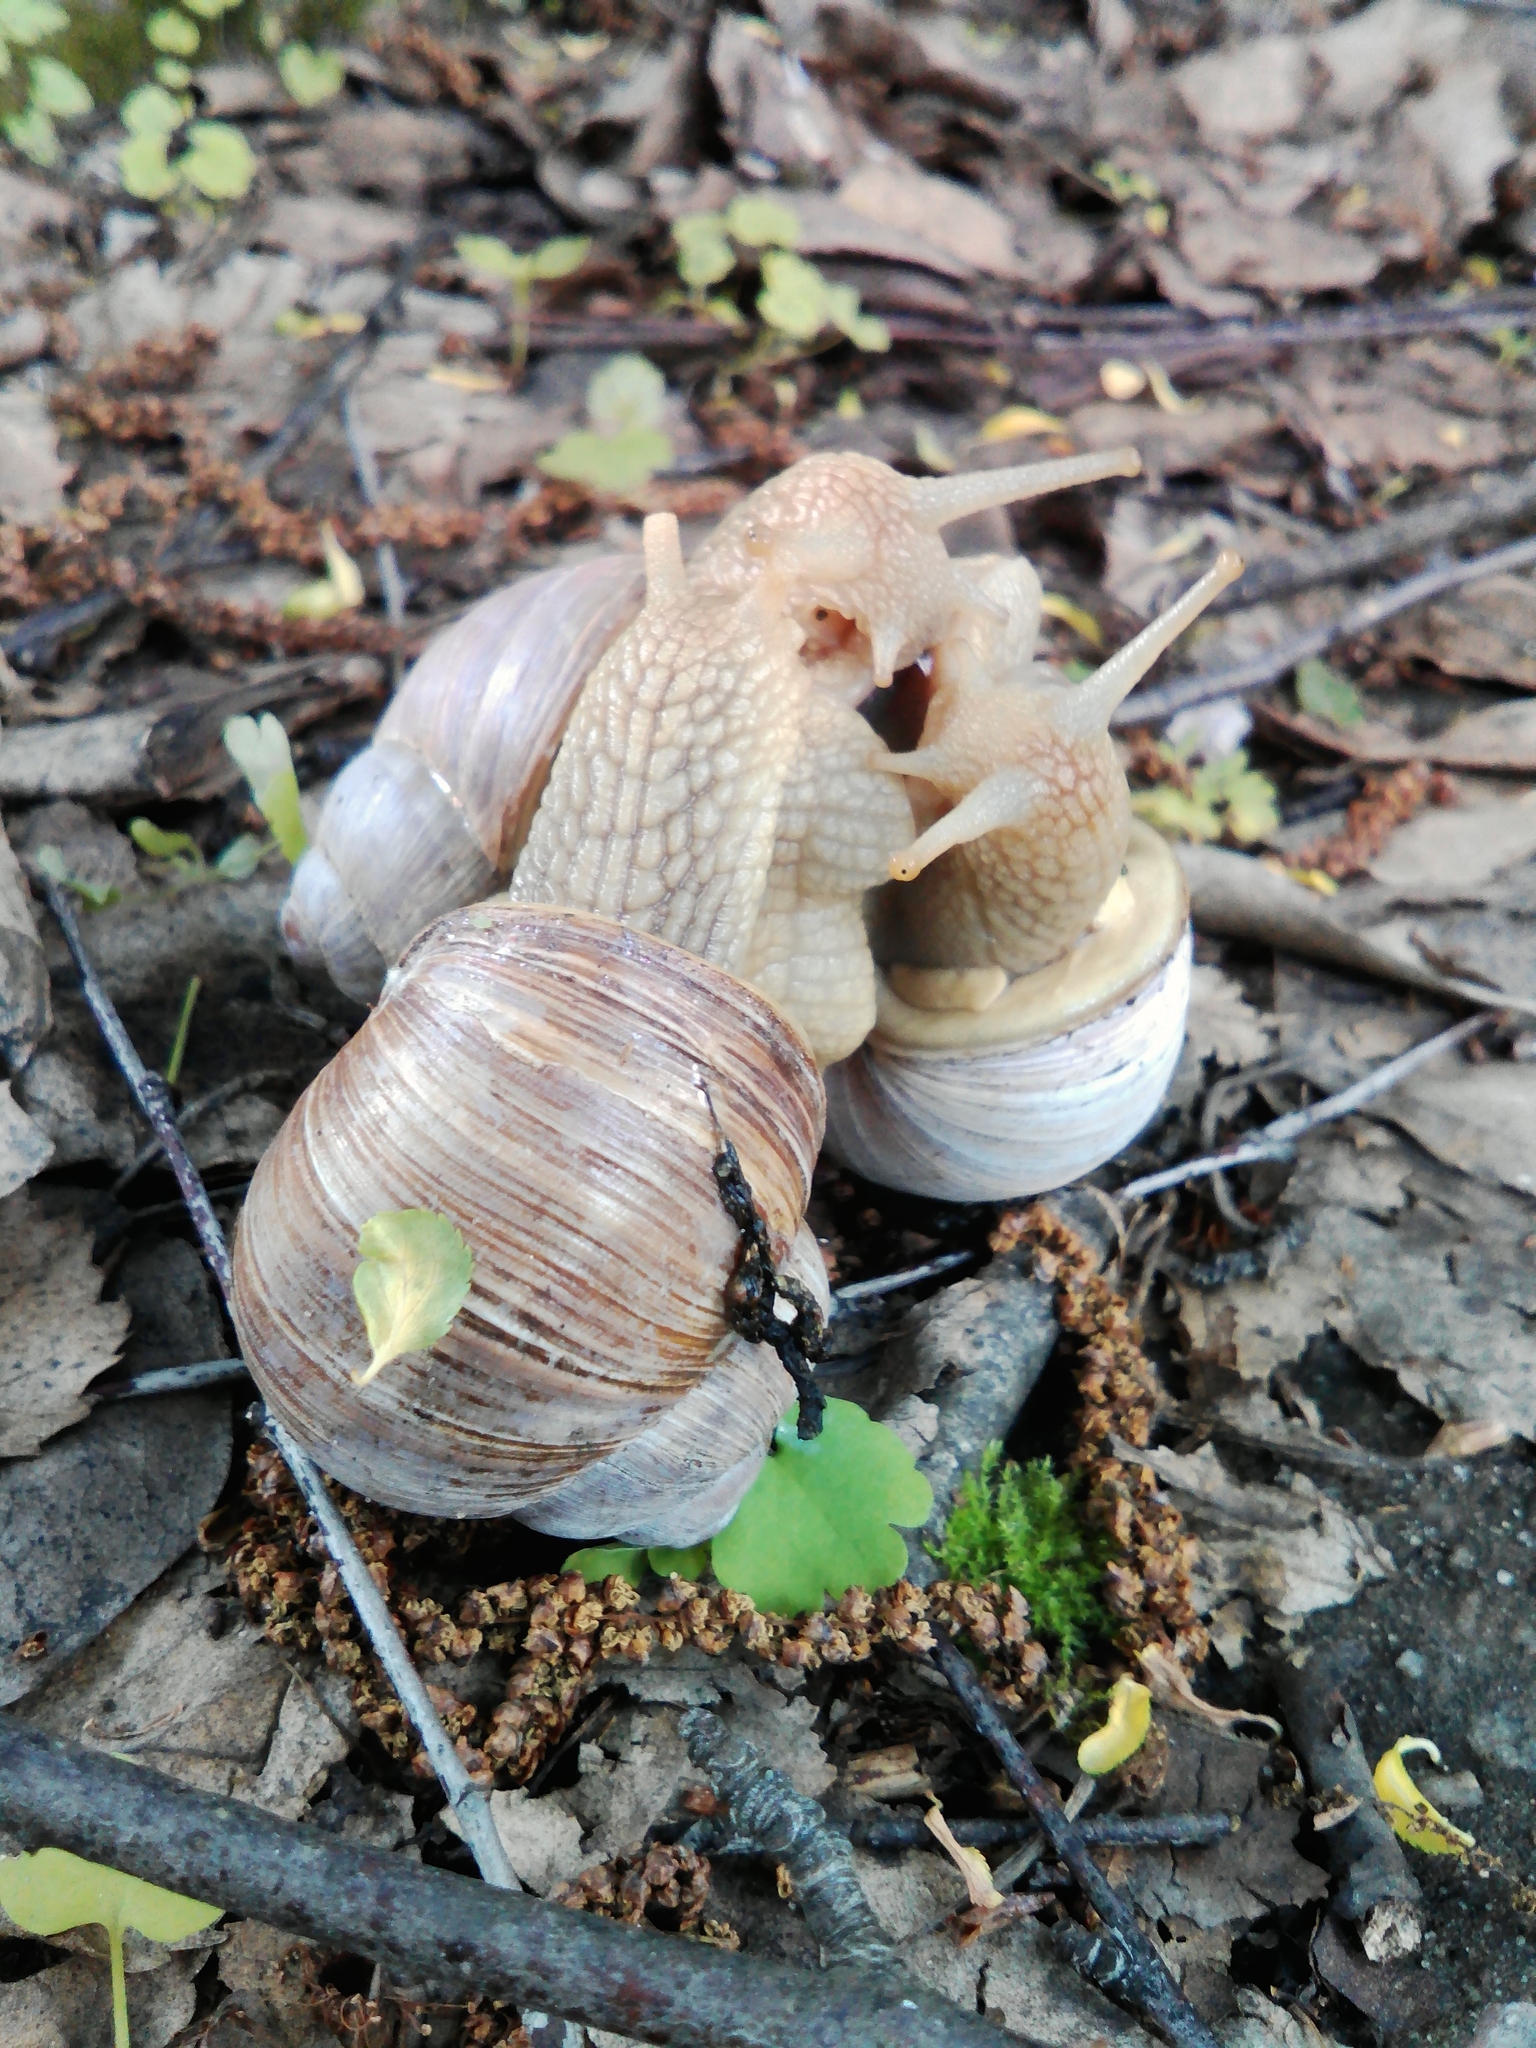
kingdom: Animalia
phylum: Mollusca
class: Gastropoda
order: Stylommatophora
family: Helicidae
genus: Helix
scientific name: Helix pomatia
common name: Roman snail
